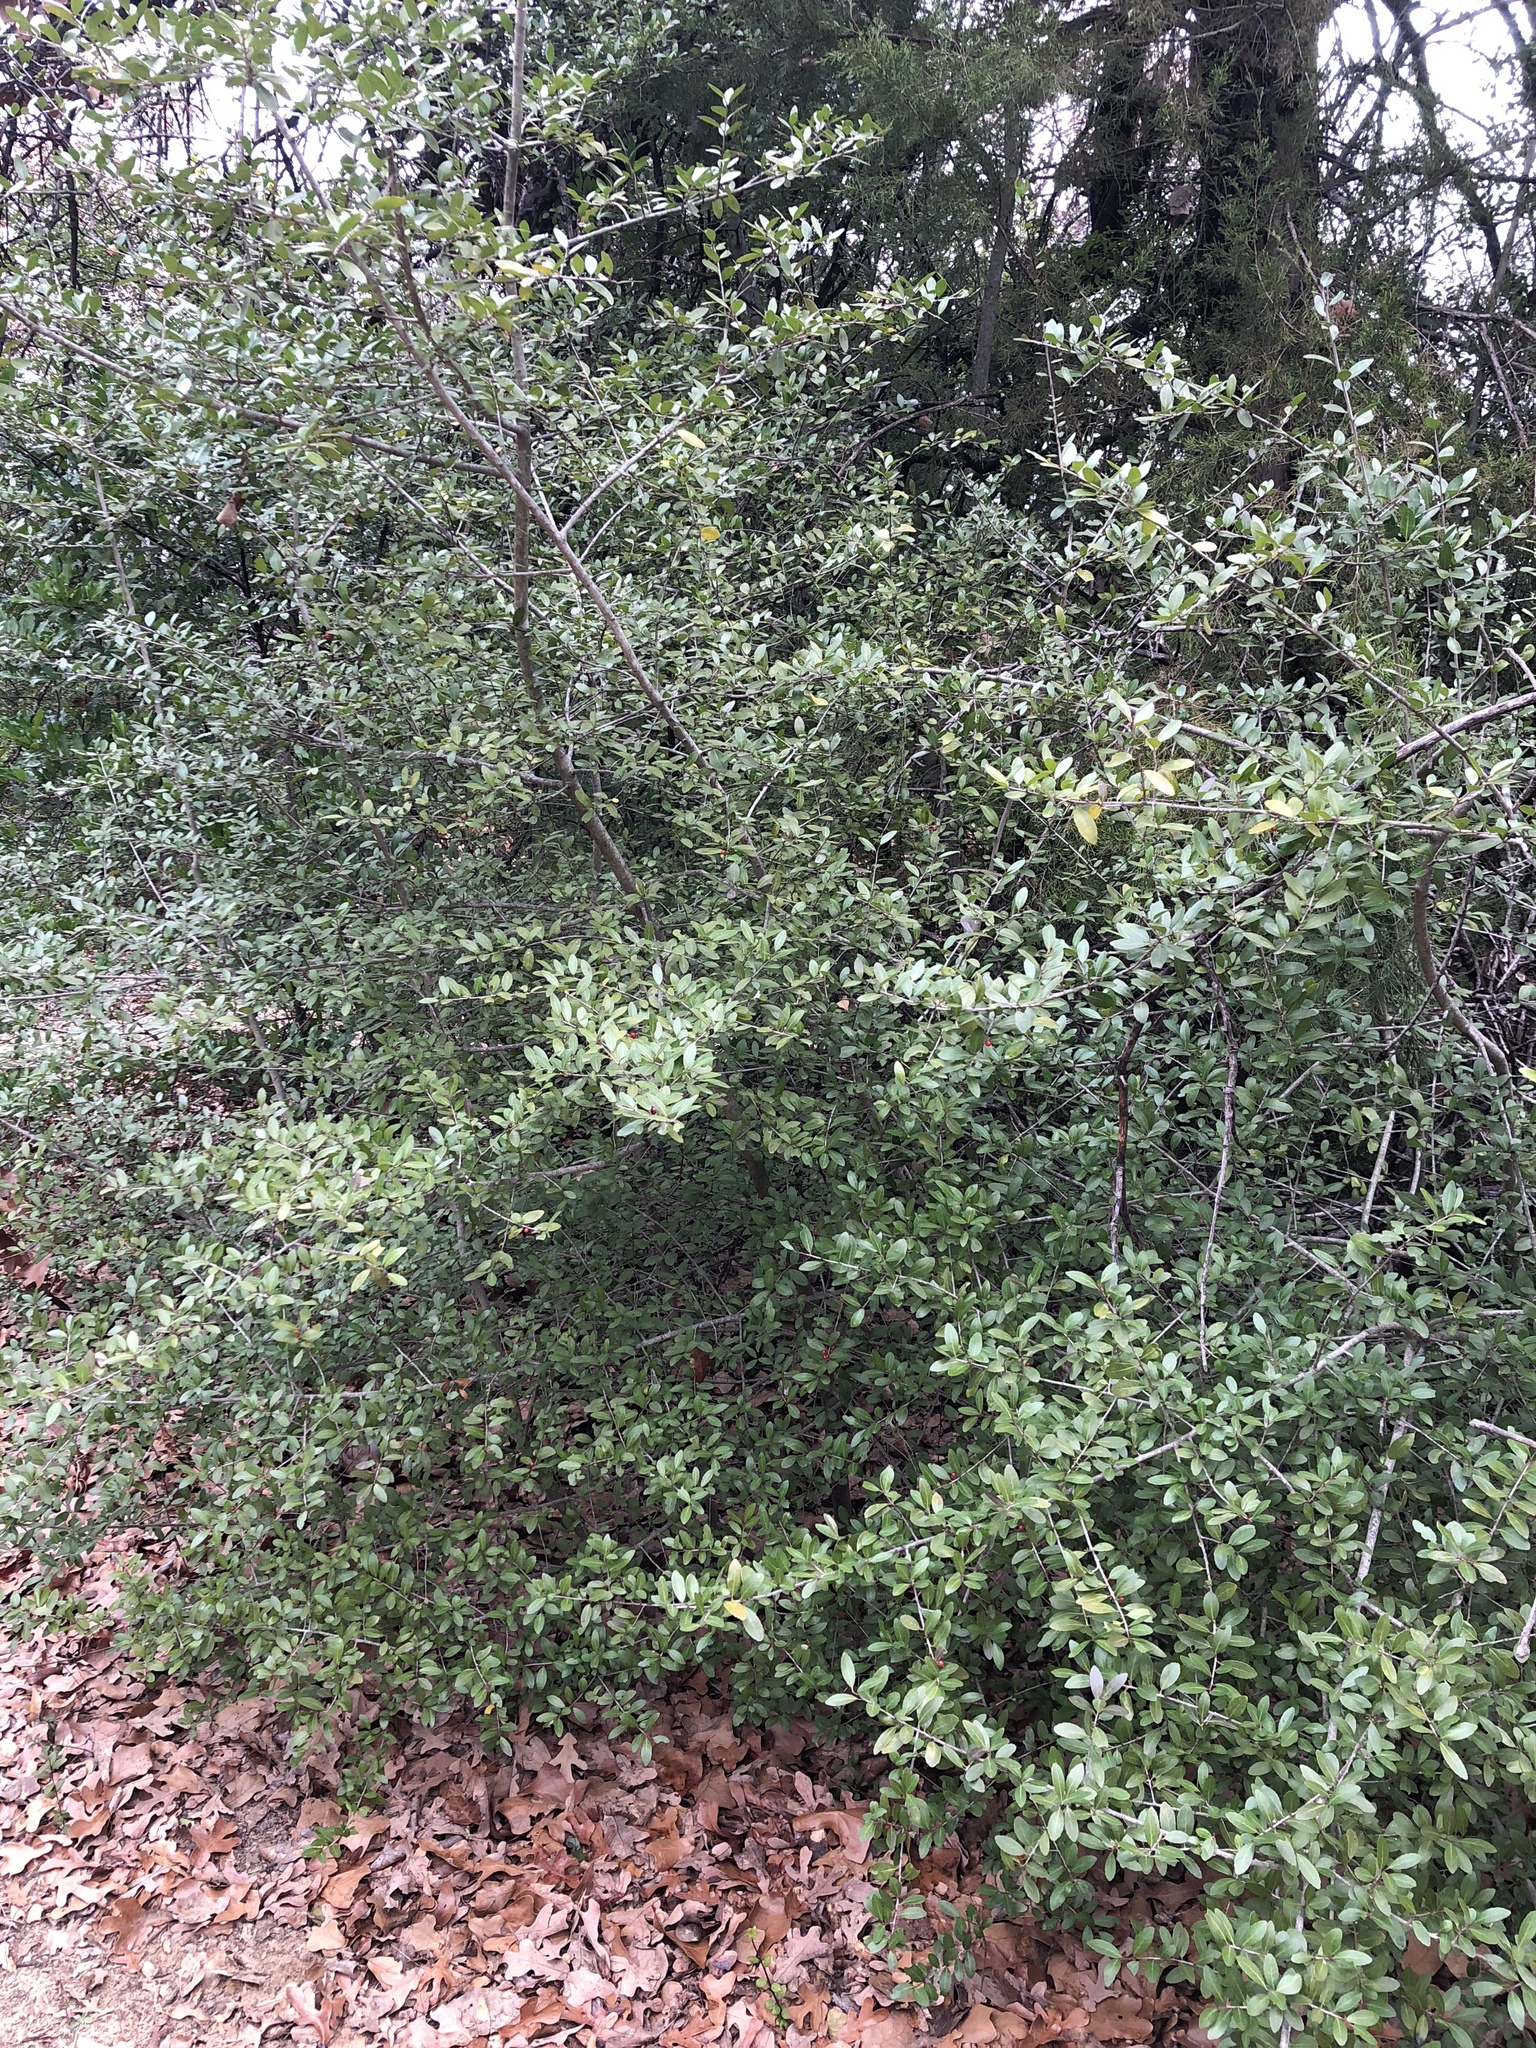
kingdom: Plantae
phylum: Tracheophyta
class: Magnoliopsida
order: Aquifoliales
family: Aquifoliaceae
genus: Ilex
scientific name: Ilex vomitoria
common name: Yaupon holly
